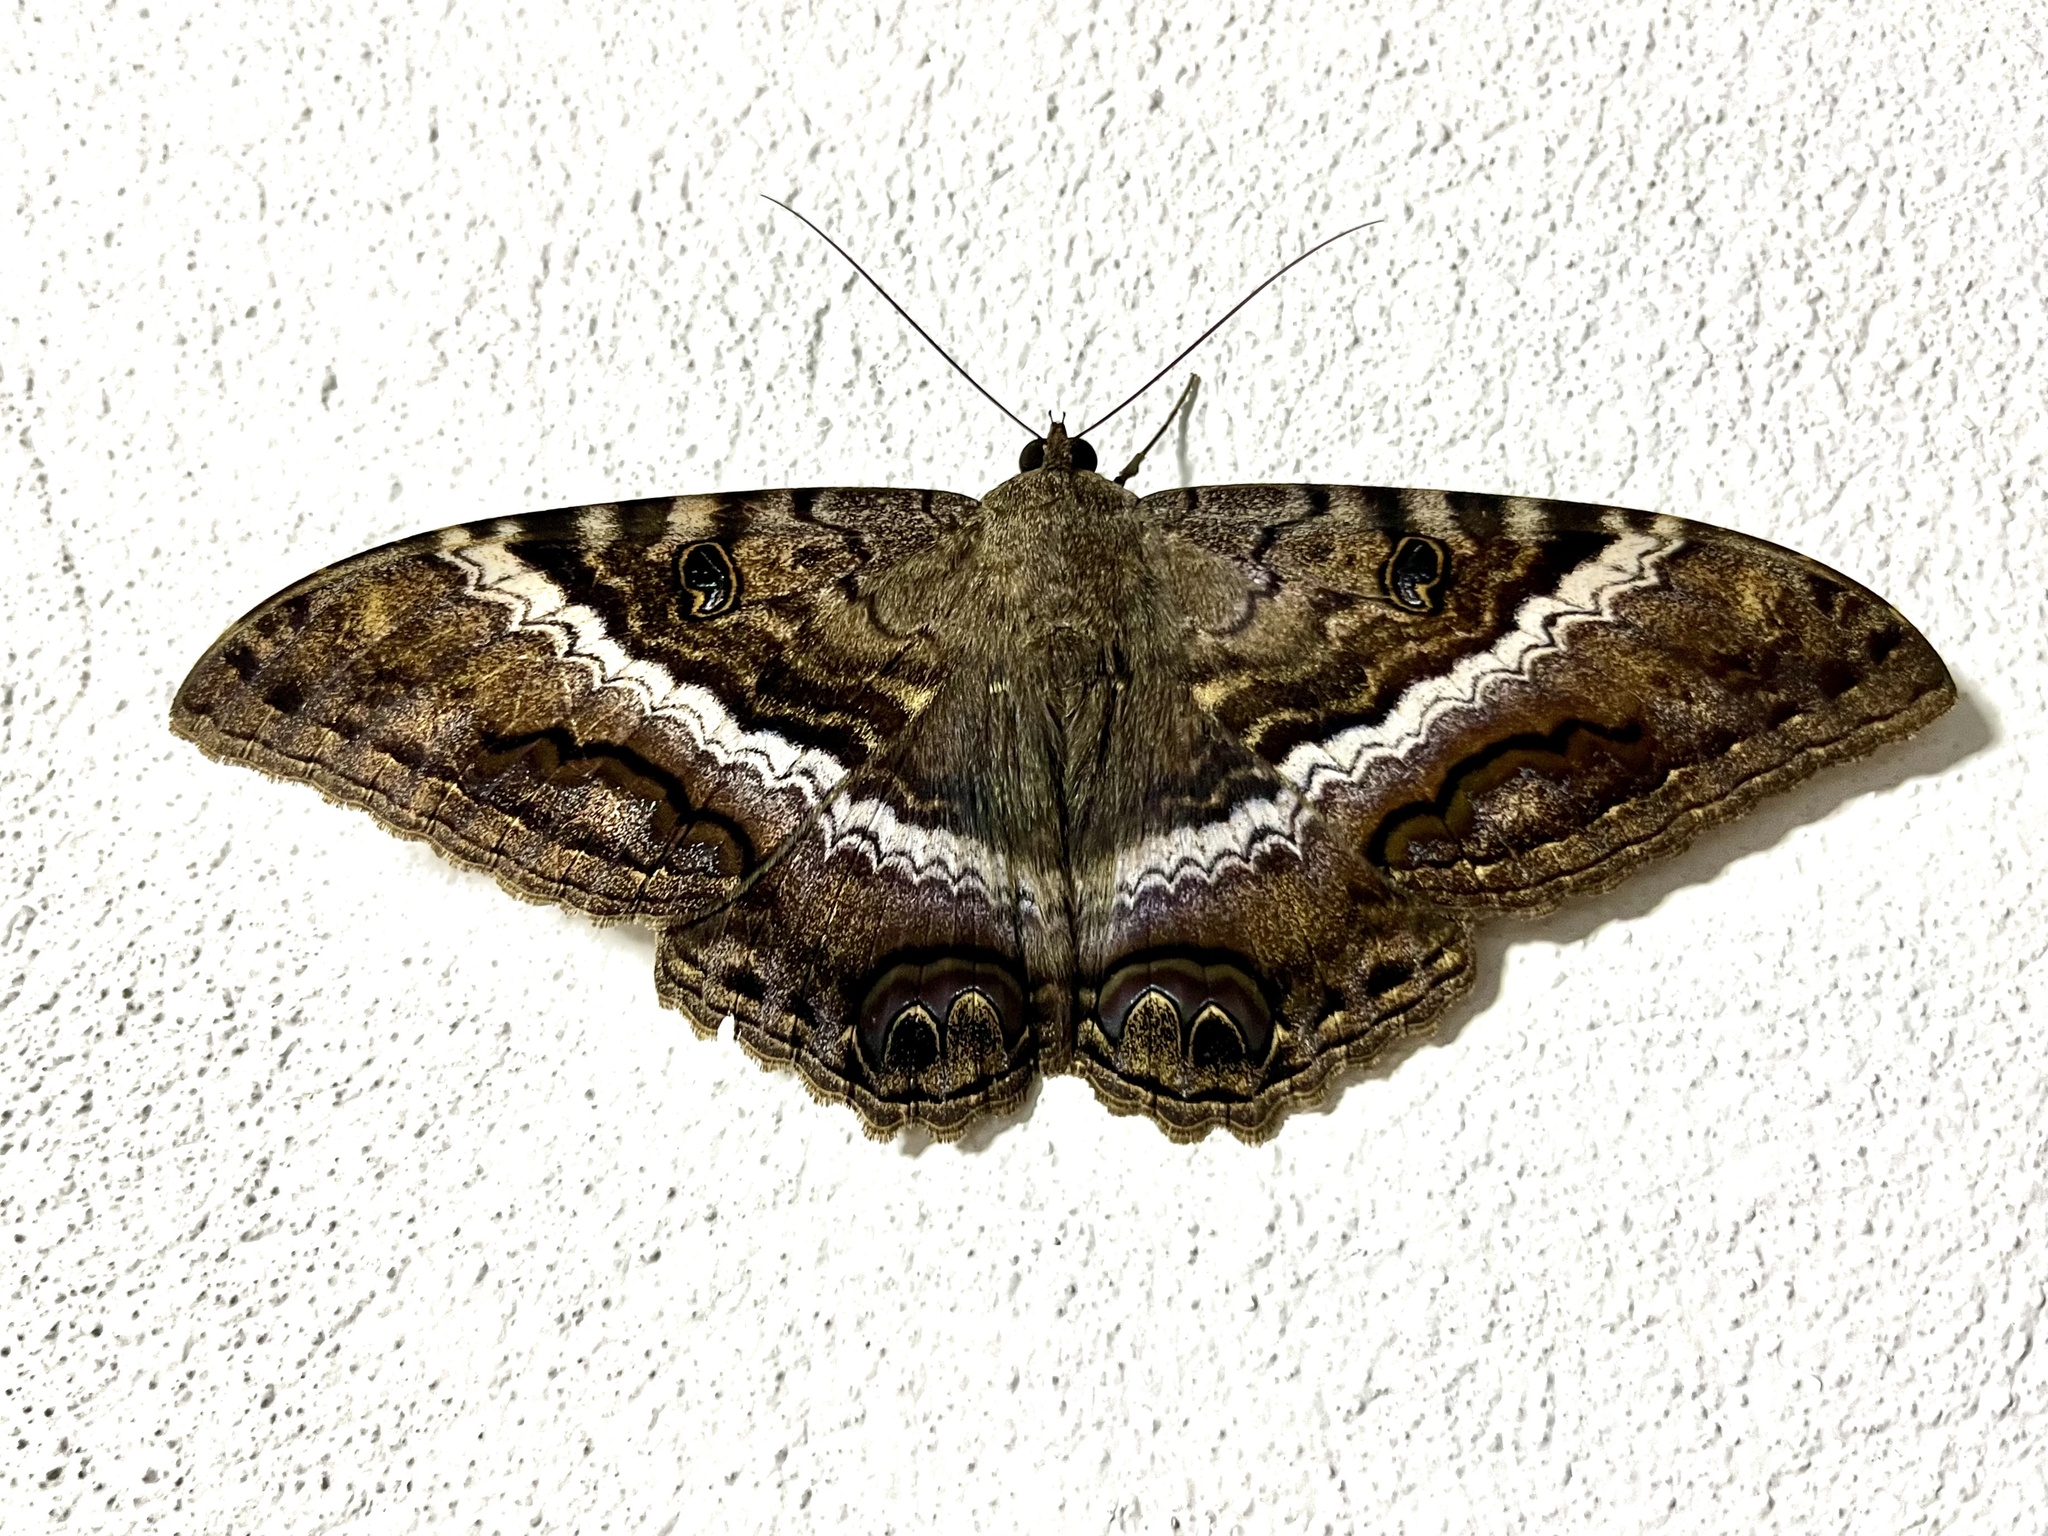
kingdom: Animalia
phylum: Arthropoda
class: Insecta
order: Lepidoptera
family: Erebidae
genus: Ascalapha
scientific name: Ascalapha odorata
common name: Black witch
